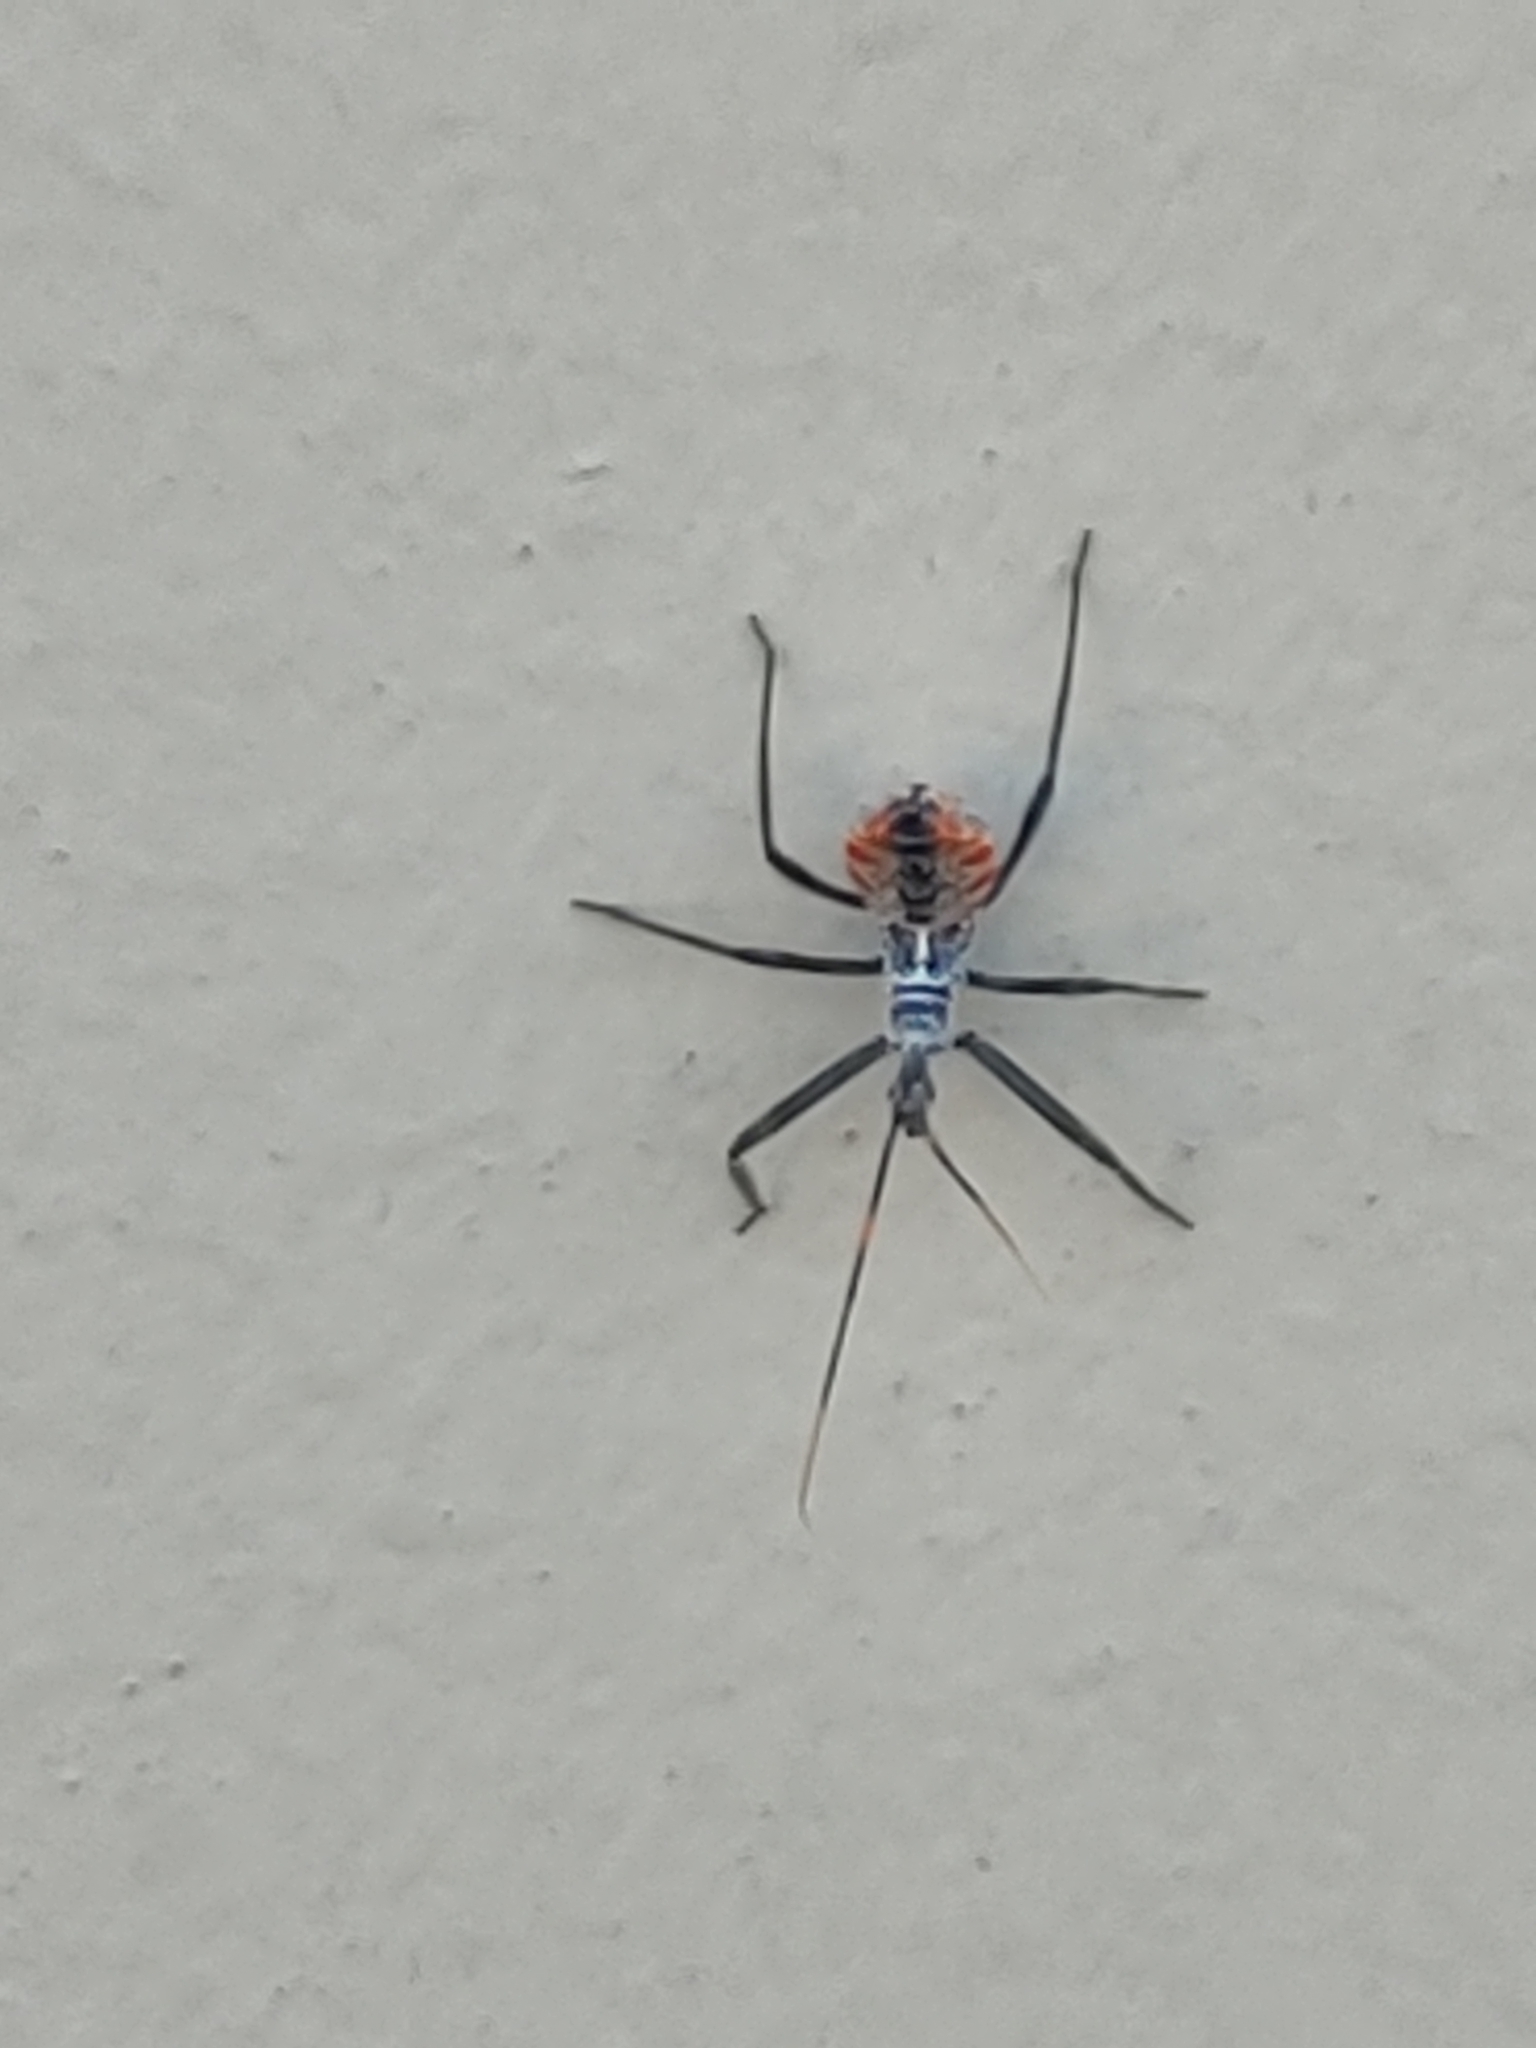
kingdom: Animalia
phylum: Arthropoda
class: Insecta
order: Hemiptera
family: Reduviidae
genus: Arilus
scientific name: Arilus cristatus
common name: North american wheel bug
